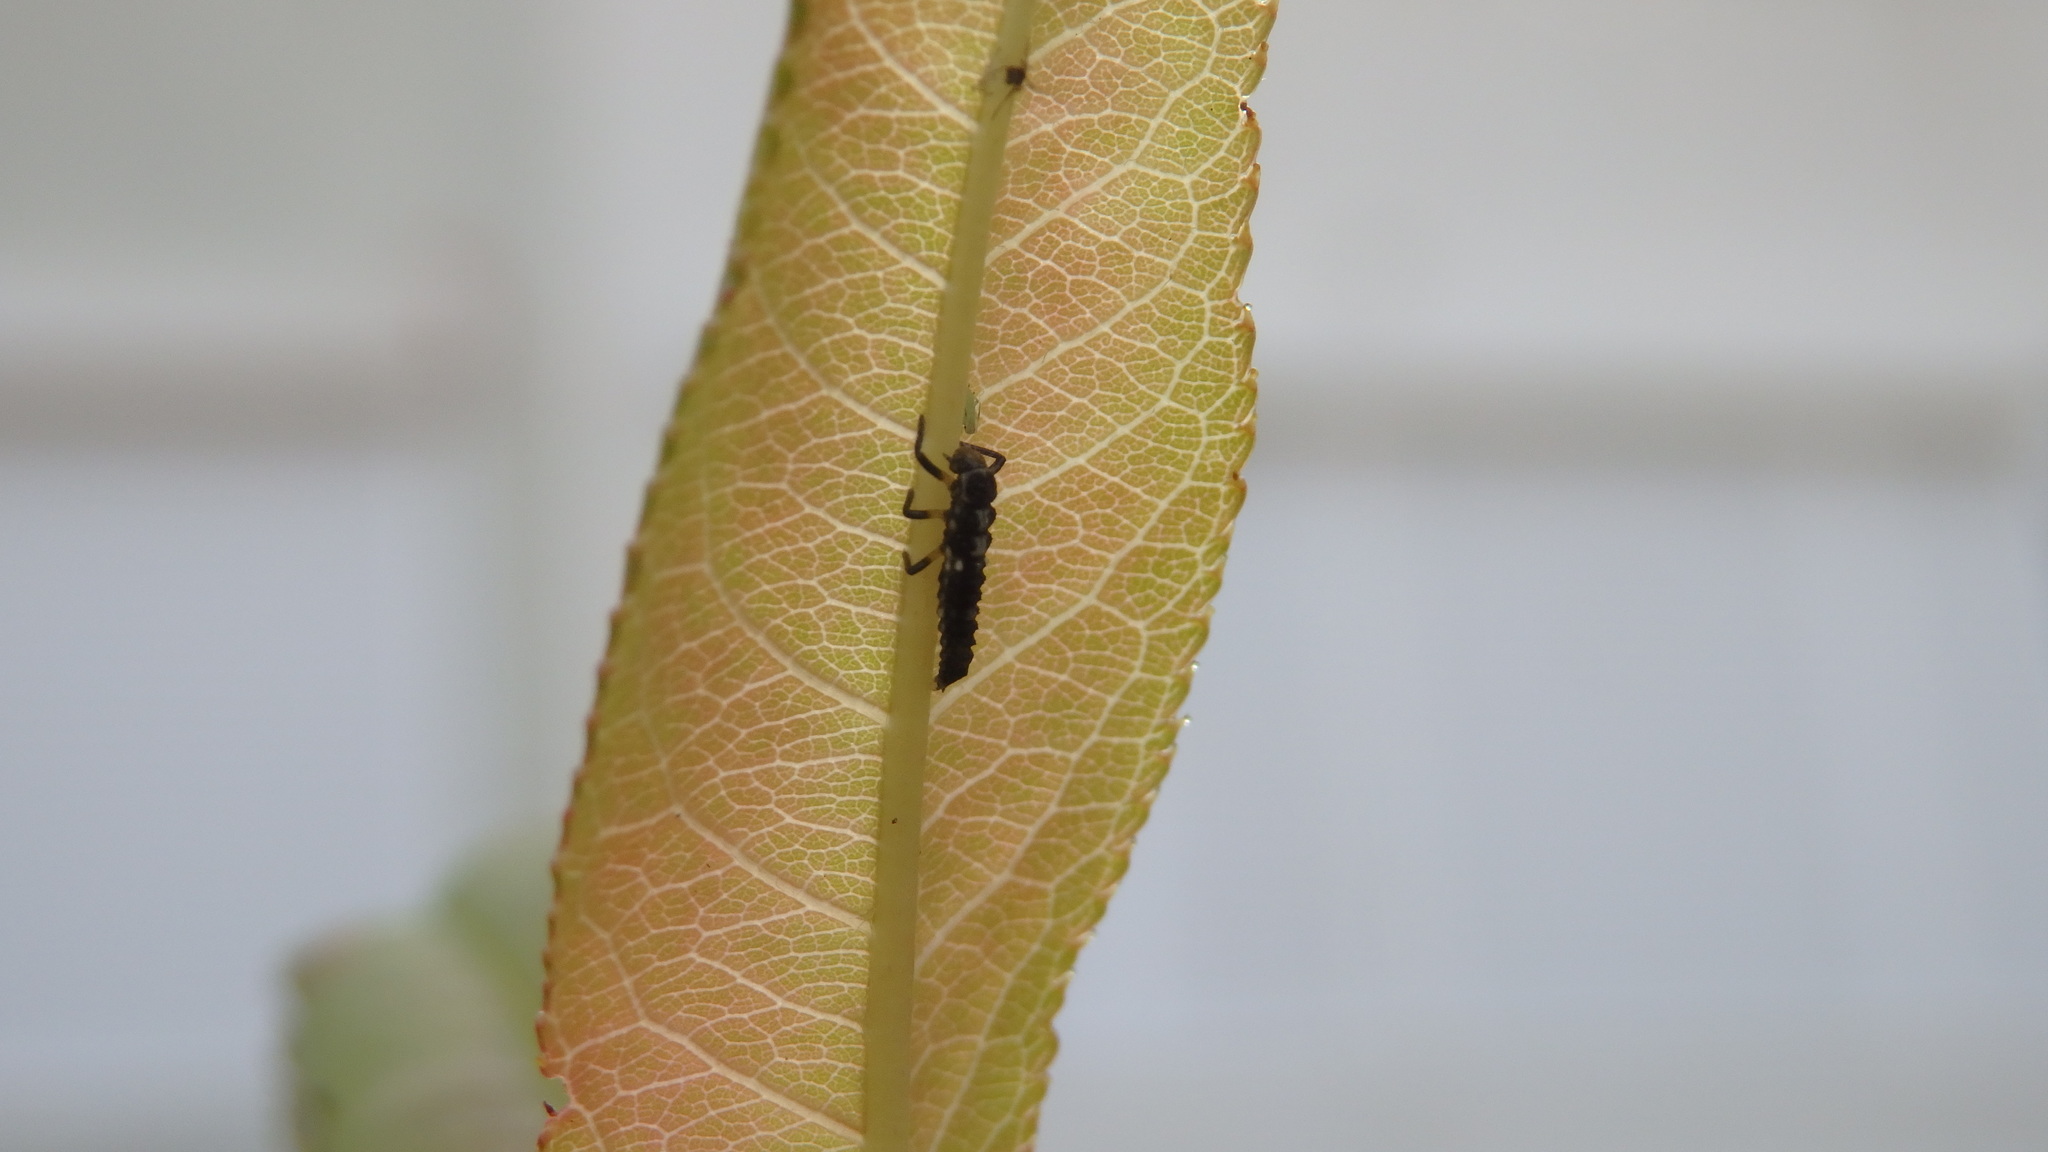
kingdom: Animalia
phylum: Arthropoda
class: Insecta
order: Coleoptera
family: Coccinellidae
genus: Propylaea
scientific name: Propylaea quatuordecimpunctata
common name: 14-spotted ladybird beetle
